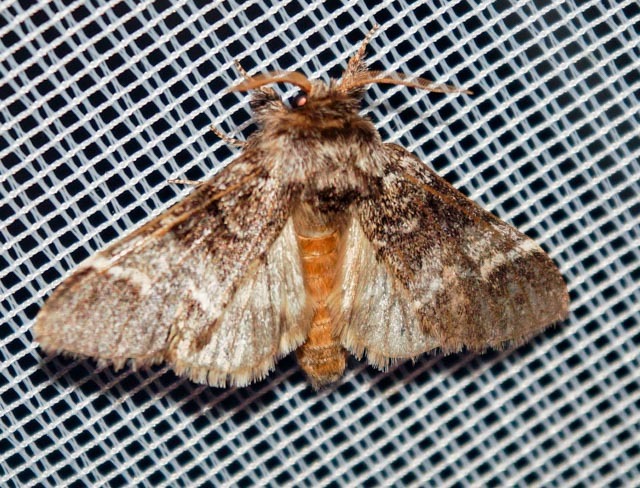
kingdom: Animalia
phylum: Arthropoda
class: Insecta
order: Lepidoptera
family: Notodontidae
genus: Drymonia
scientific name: Drymonia dodonaea
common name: Marbled brown
